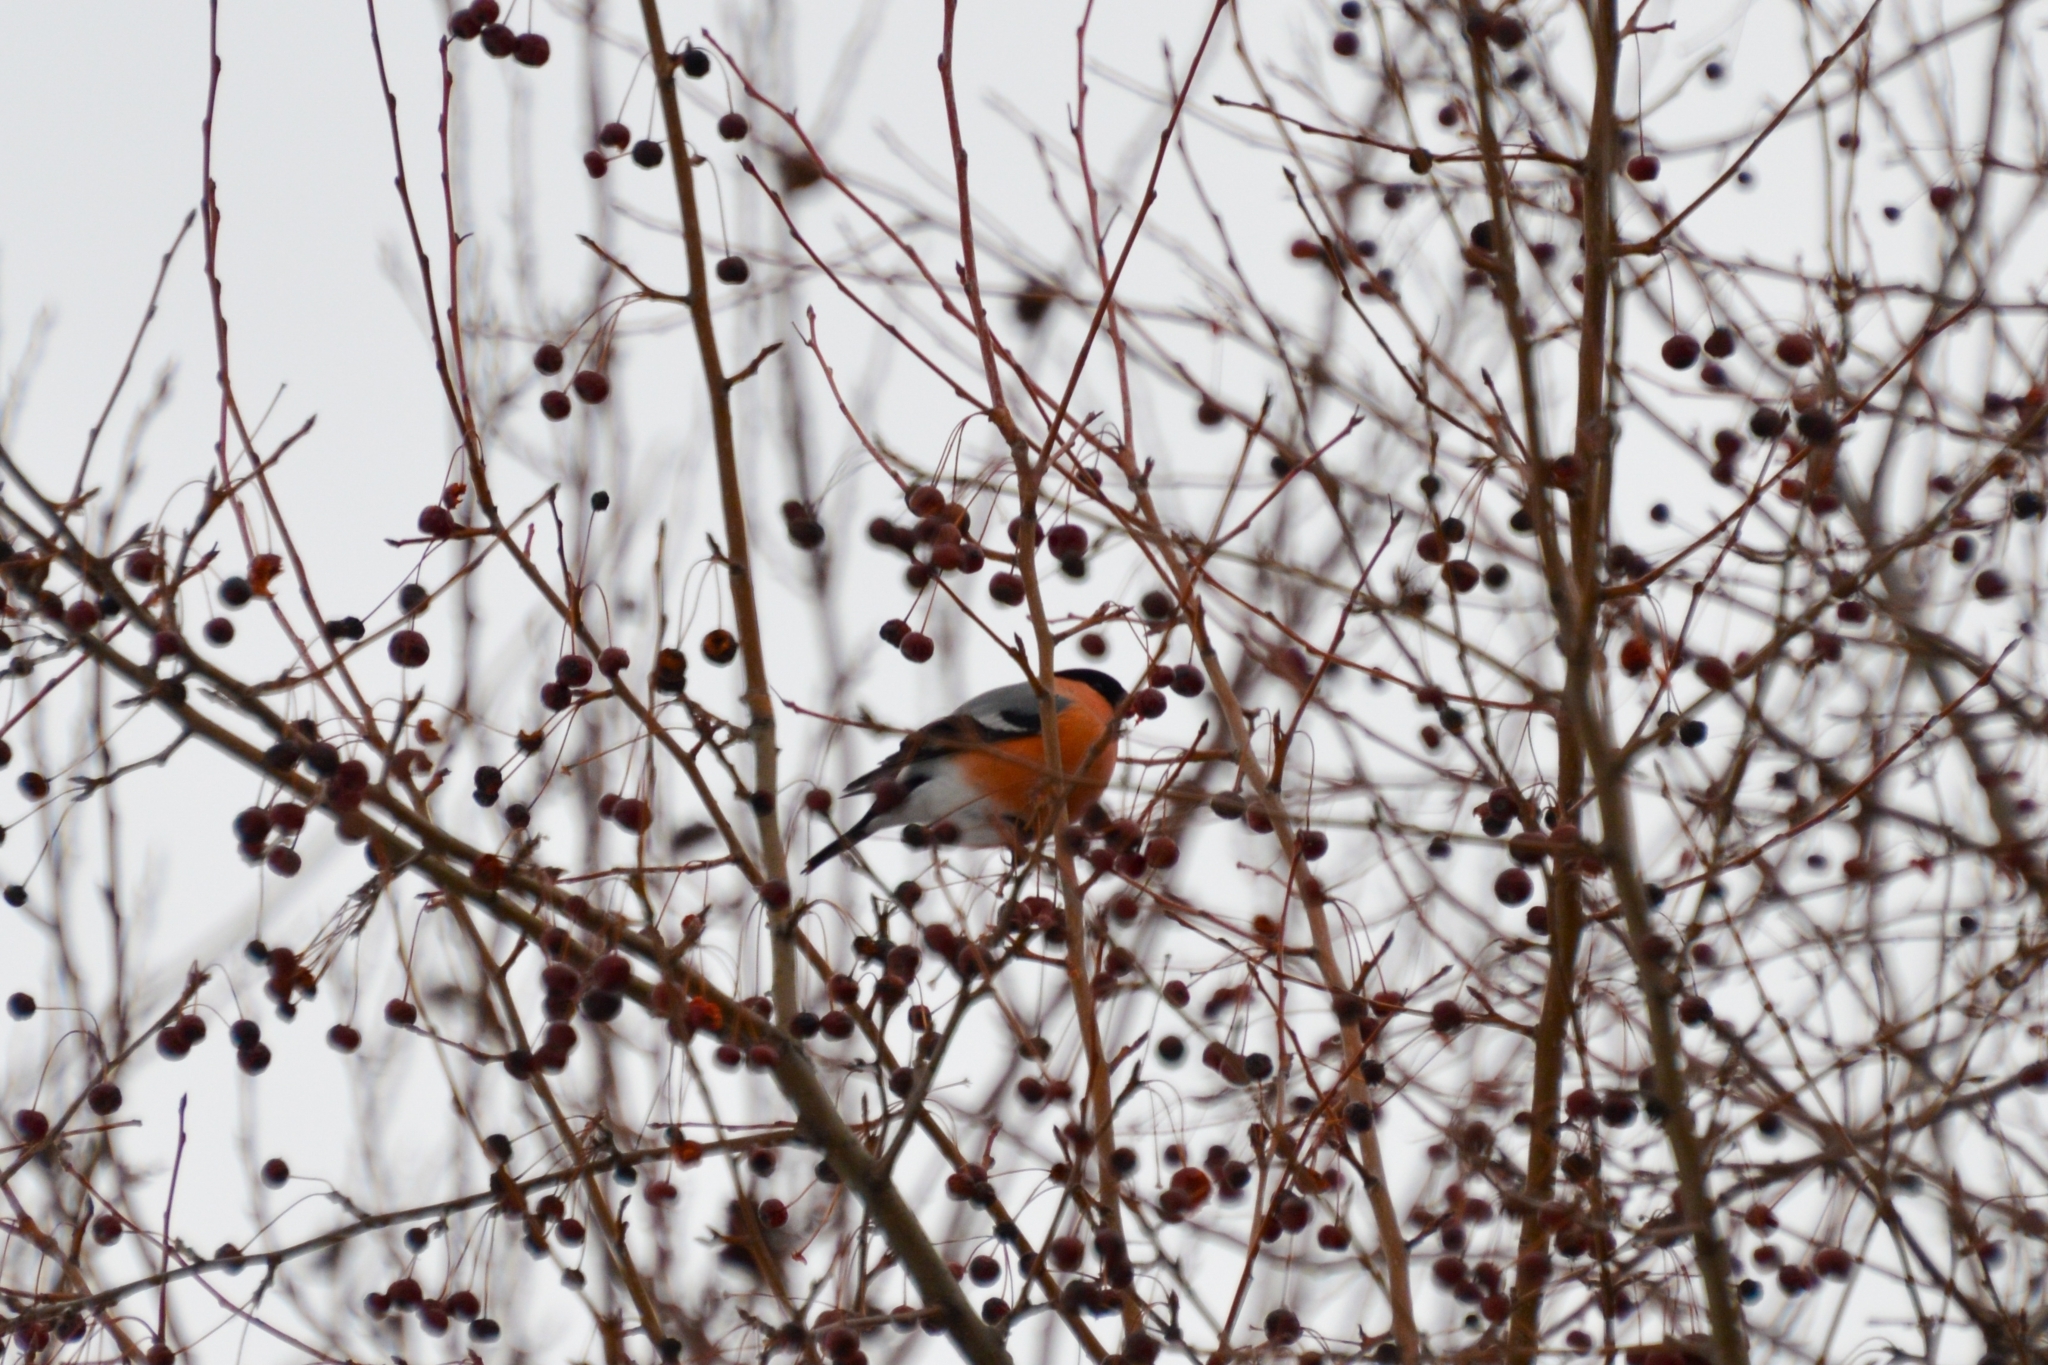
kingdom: Animalia
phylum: Chordata
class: Aves
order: Passeriformes
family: Fringillidae
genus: Pyrrhula
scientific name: Pyrrhula pyrrhula
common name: Eurasian bullfinch
